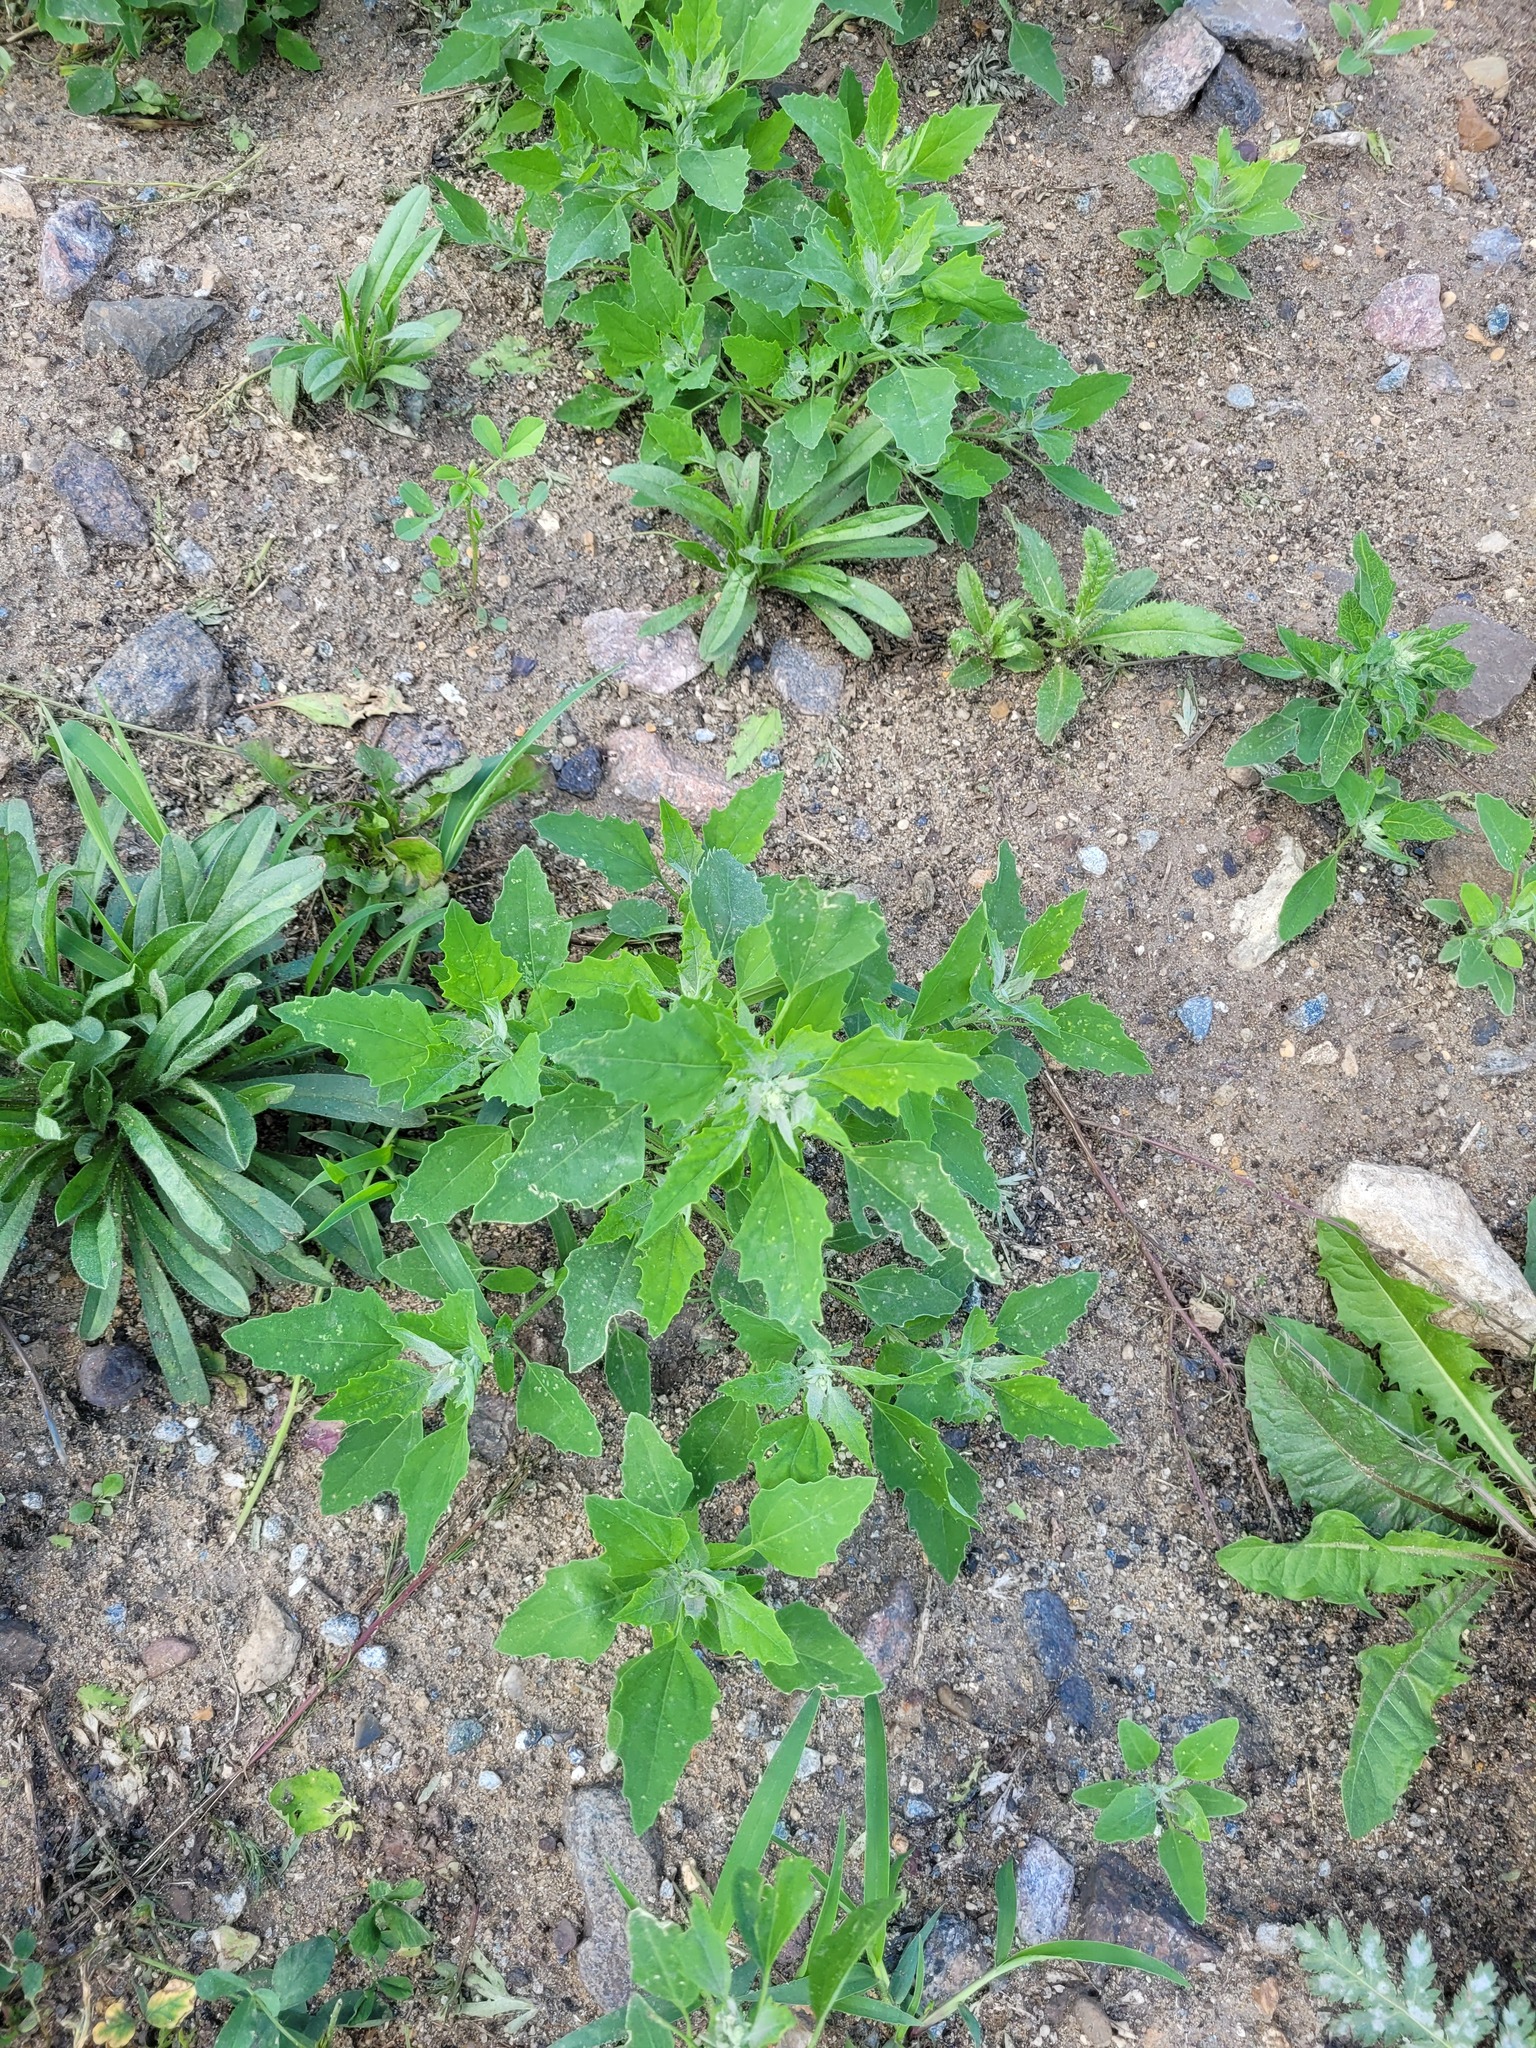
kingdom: Plantae
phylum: Tracheophyta
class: Magnoliopsida
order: Caryophyllales
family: Amaranthaceae
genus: Chenopodium
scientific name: Chenopodium album
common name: Fat-hen
